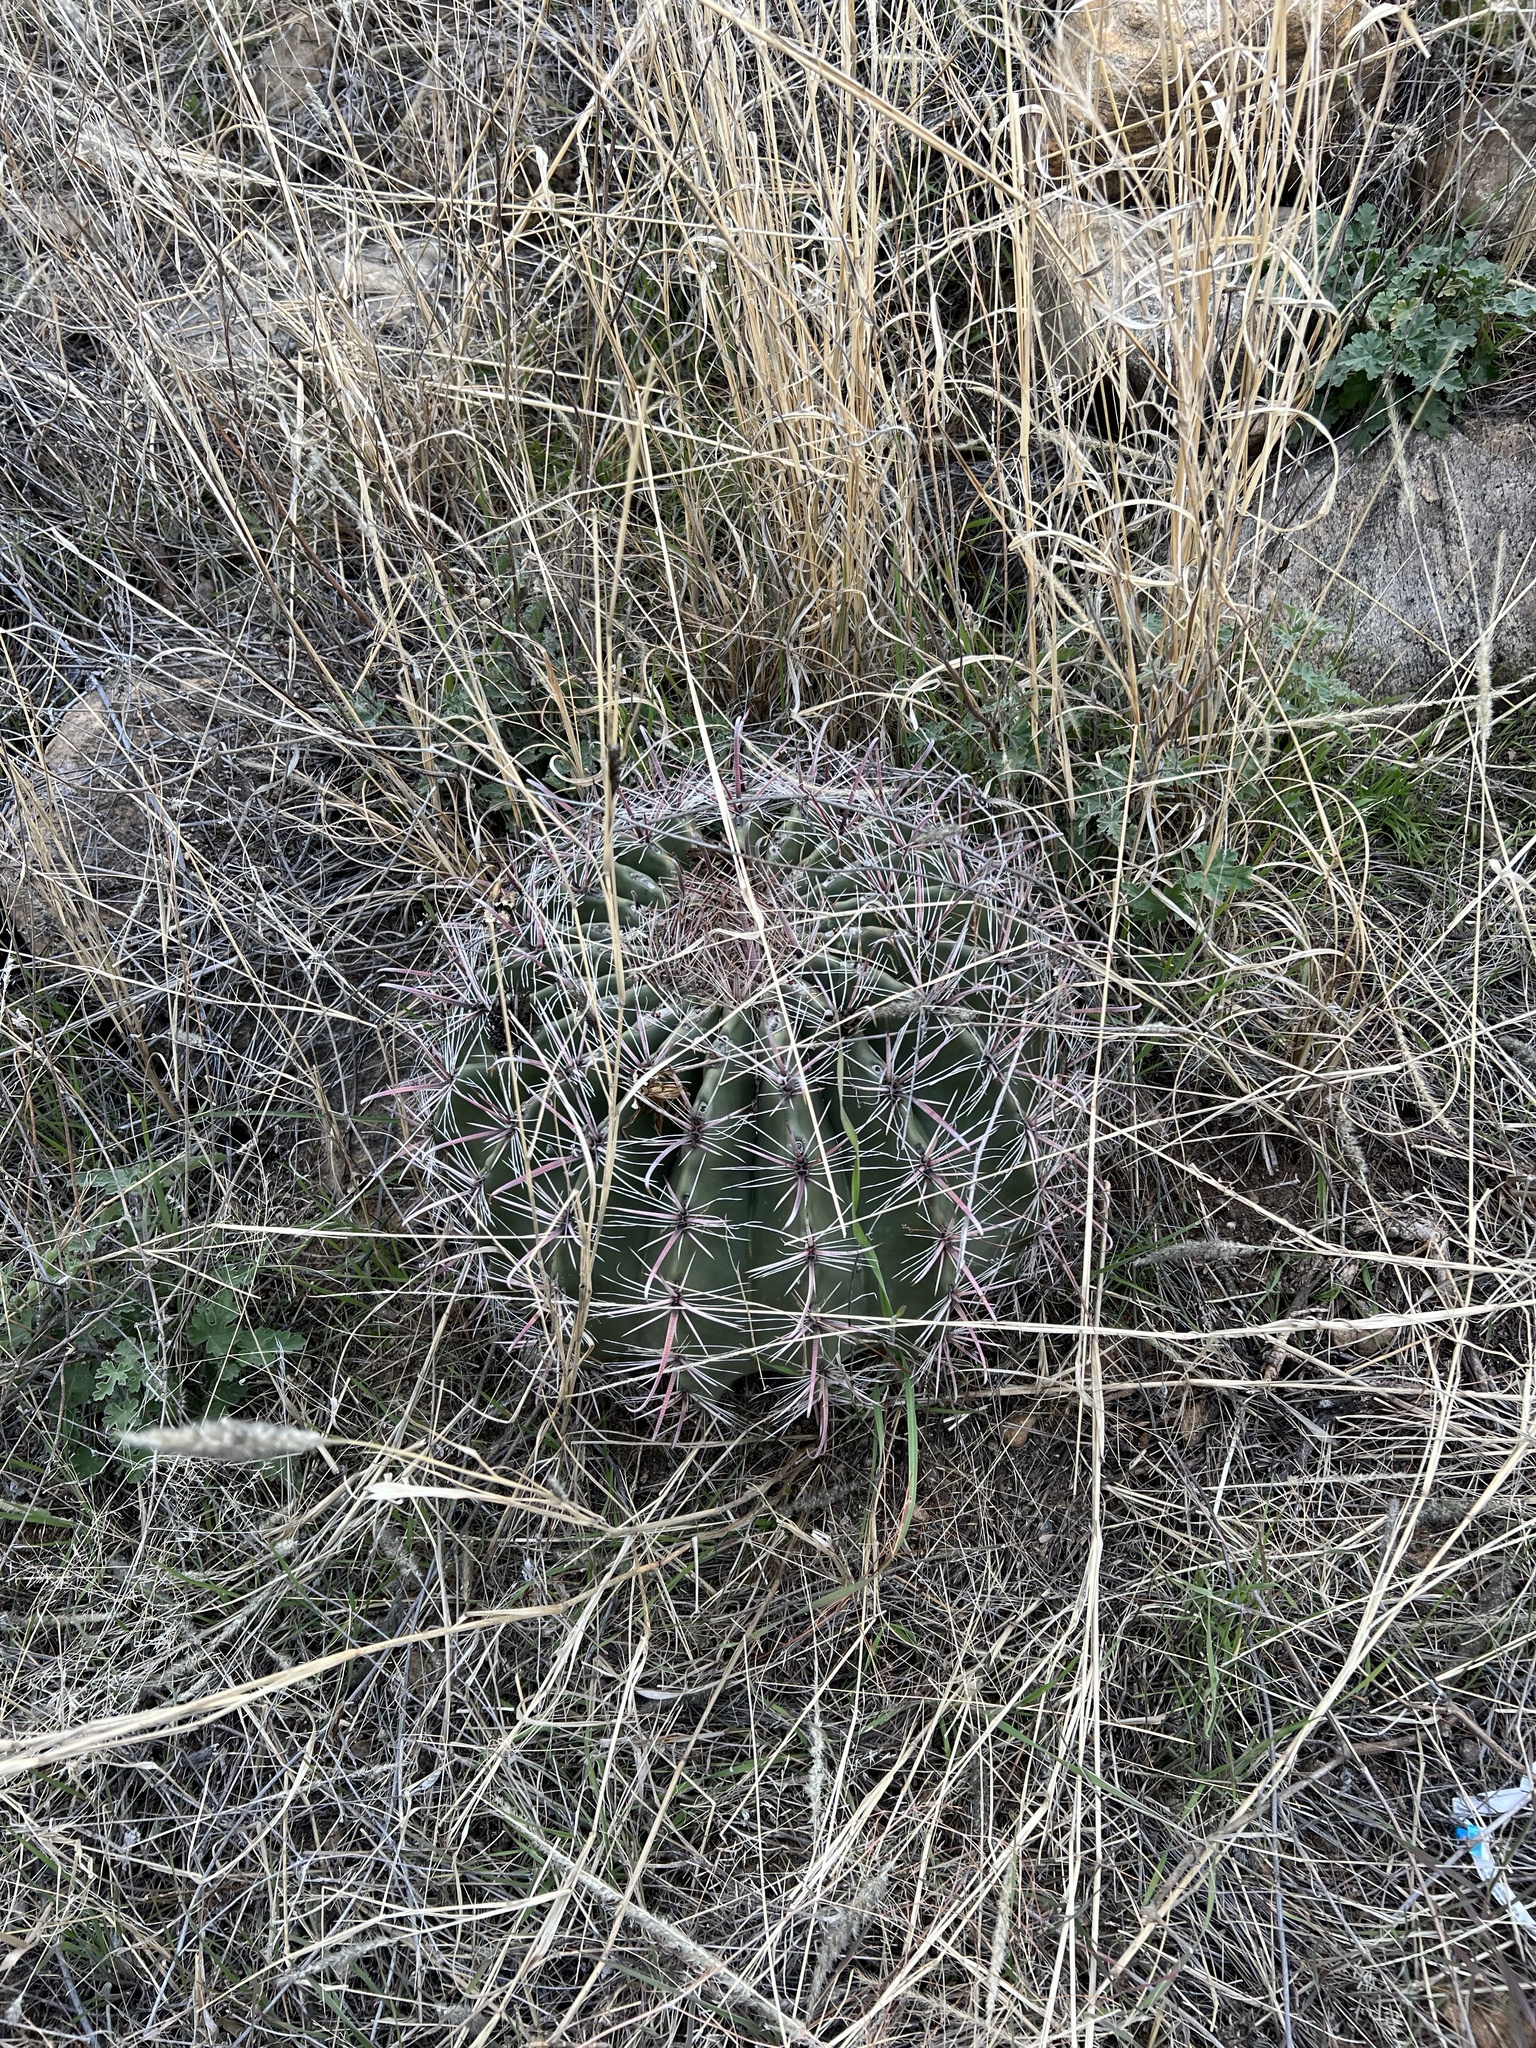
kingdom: Plantae
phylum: Tracheophyta
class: Magnoliopsida
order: Caryophyllales
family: Cactaceae
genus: Ferocactus
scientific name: Ferocactus wislizeni
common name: Candy barrel cactus
